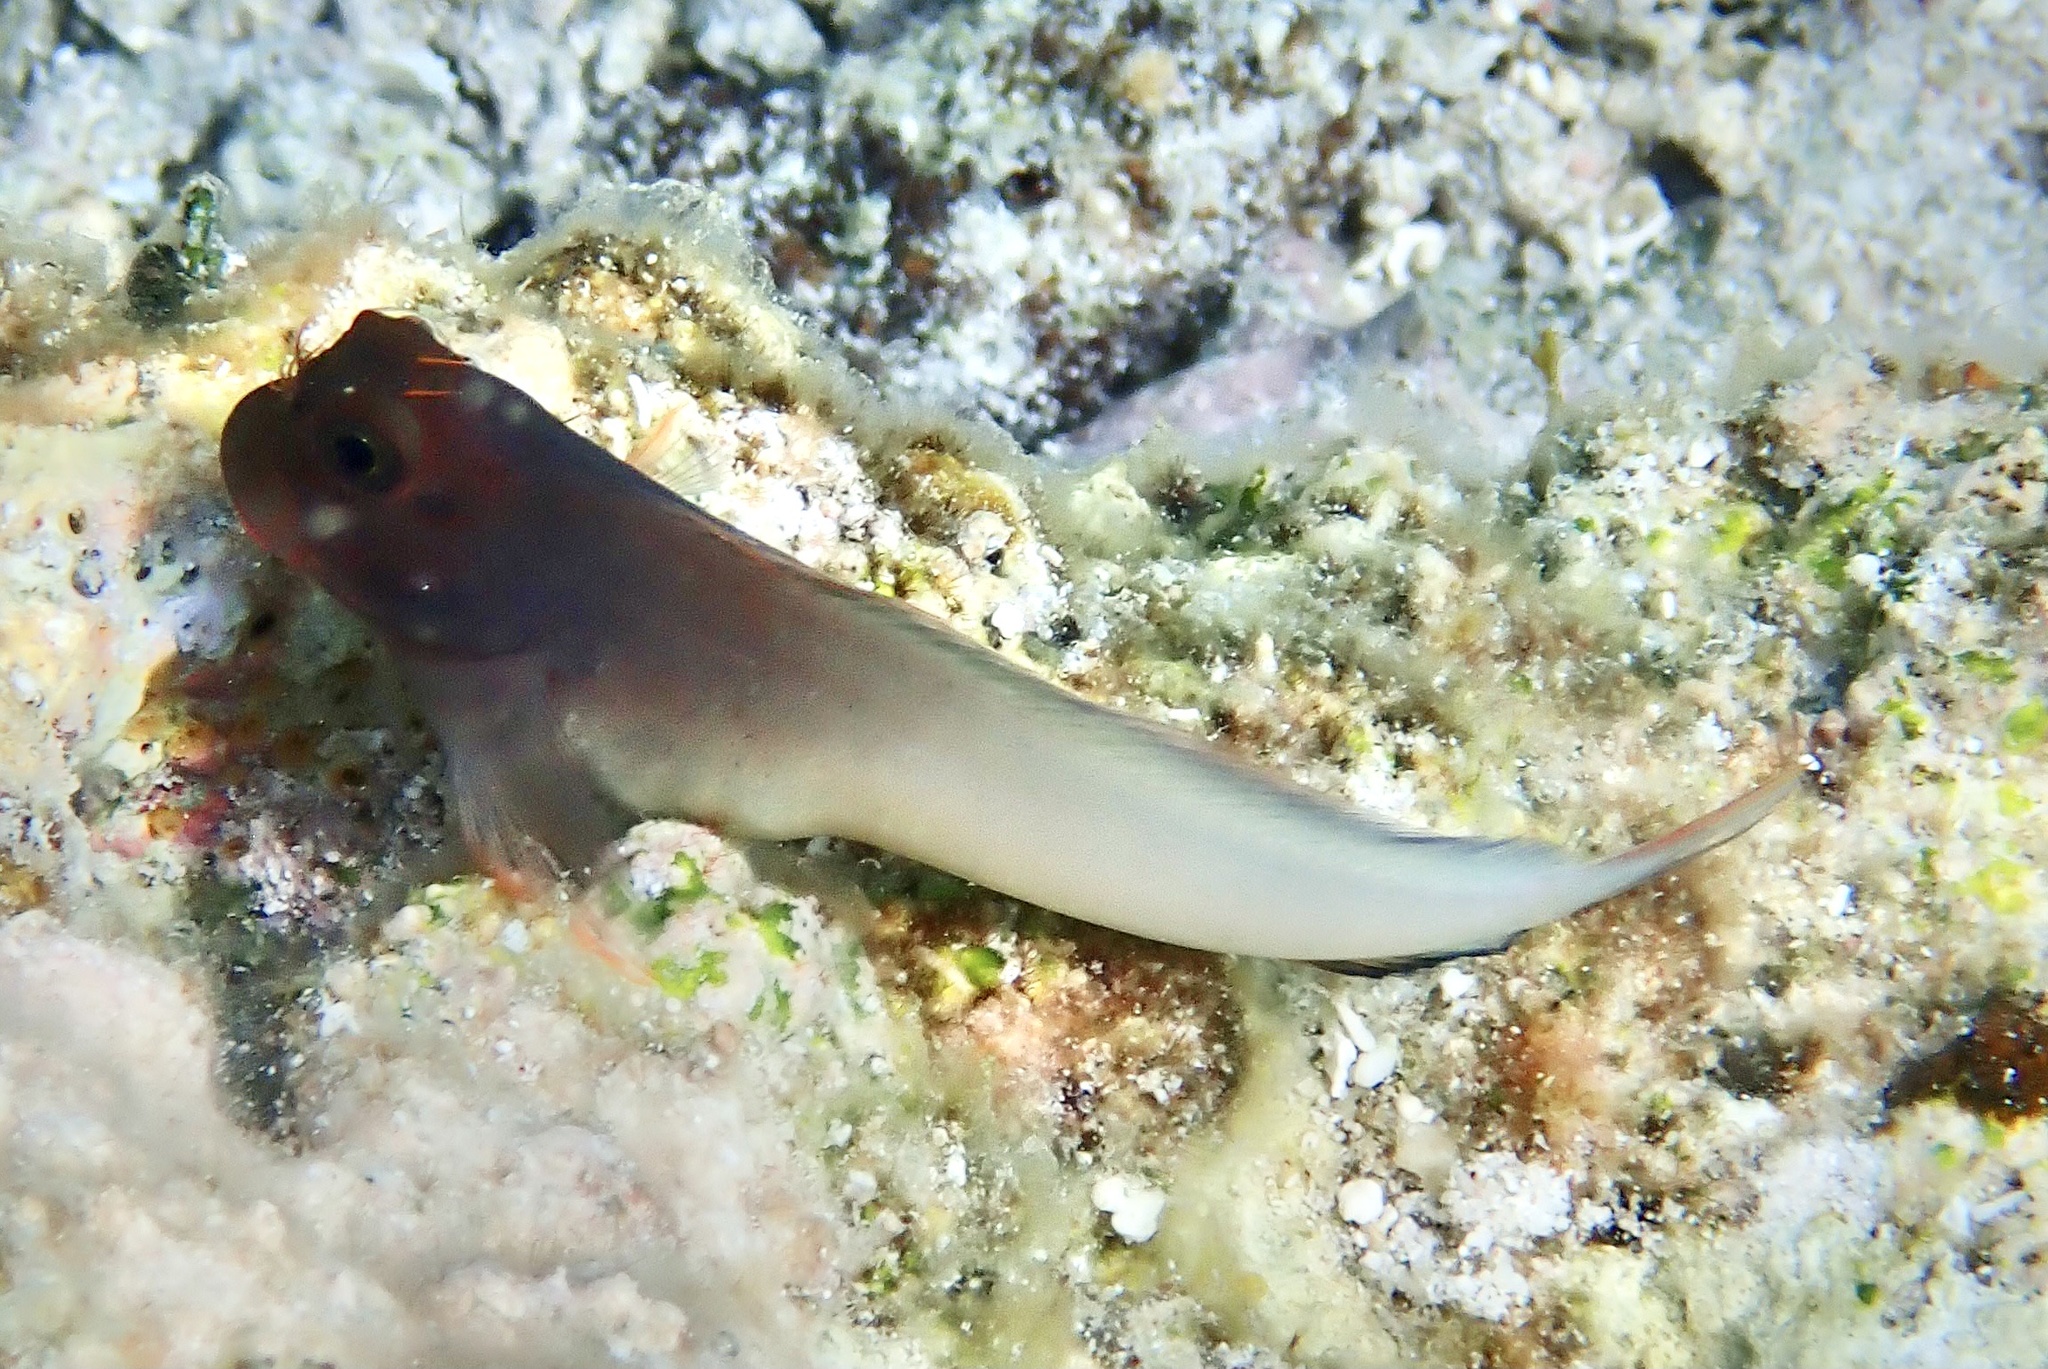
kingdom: Animalia
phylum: Chordata
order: Perciformes
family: Blenniidae
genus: Ophioblennius
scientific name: Ophioblennius macclurei
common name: Redlip blenny
